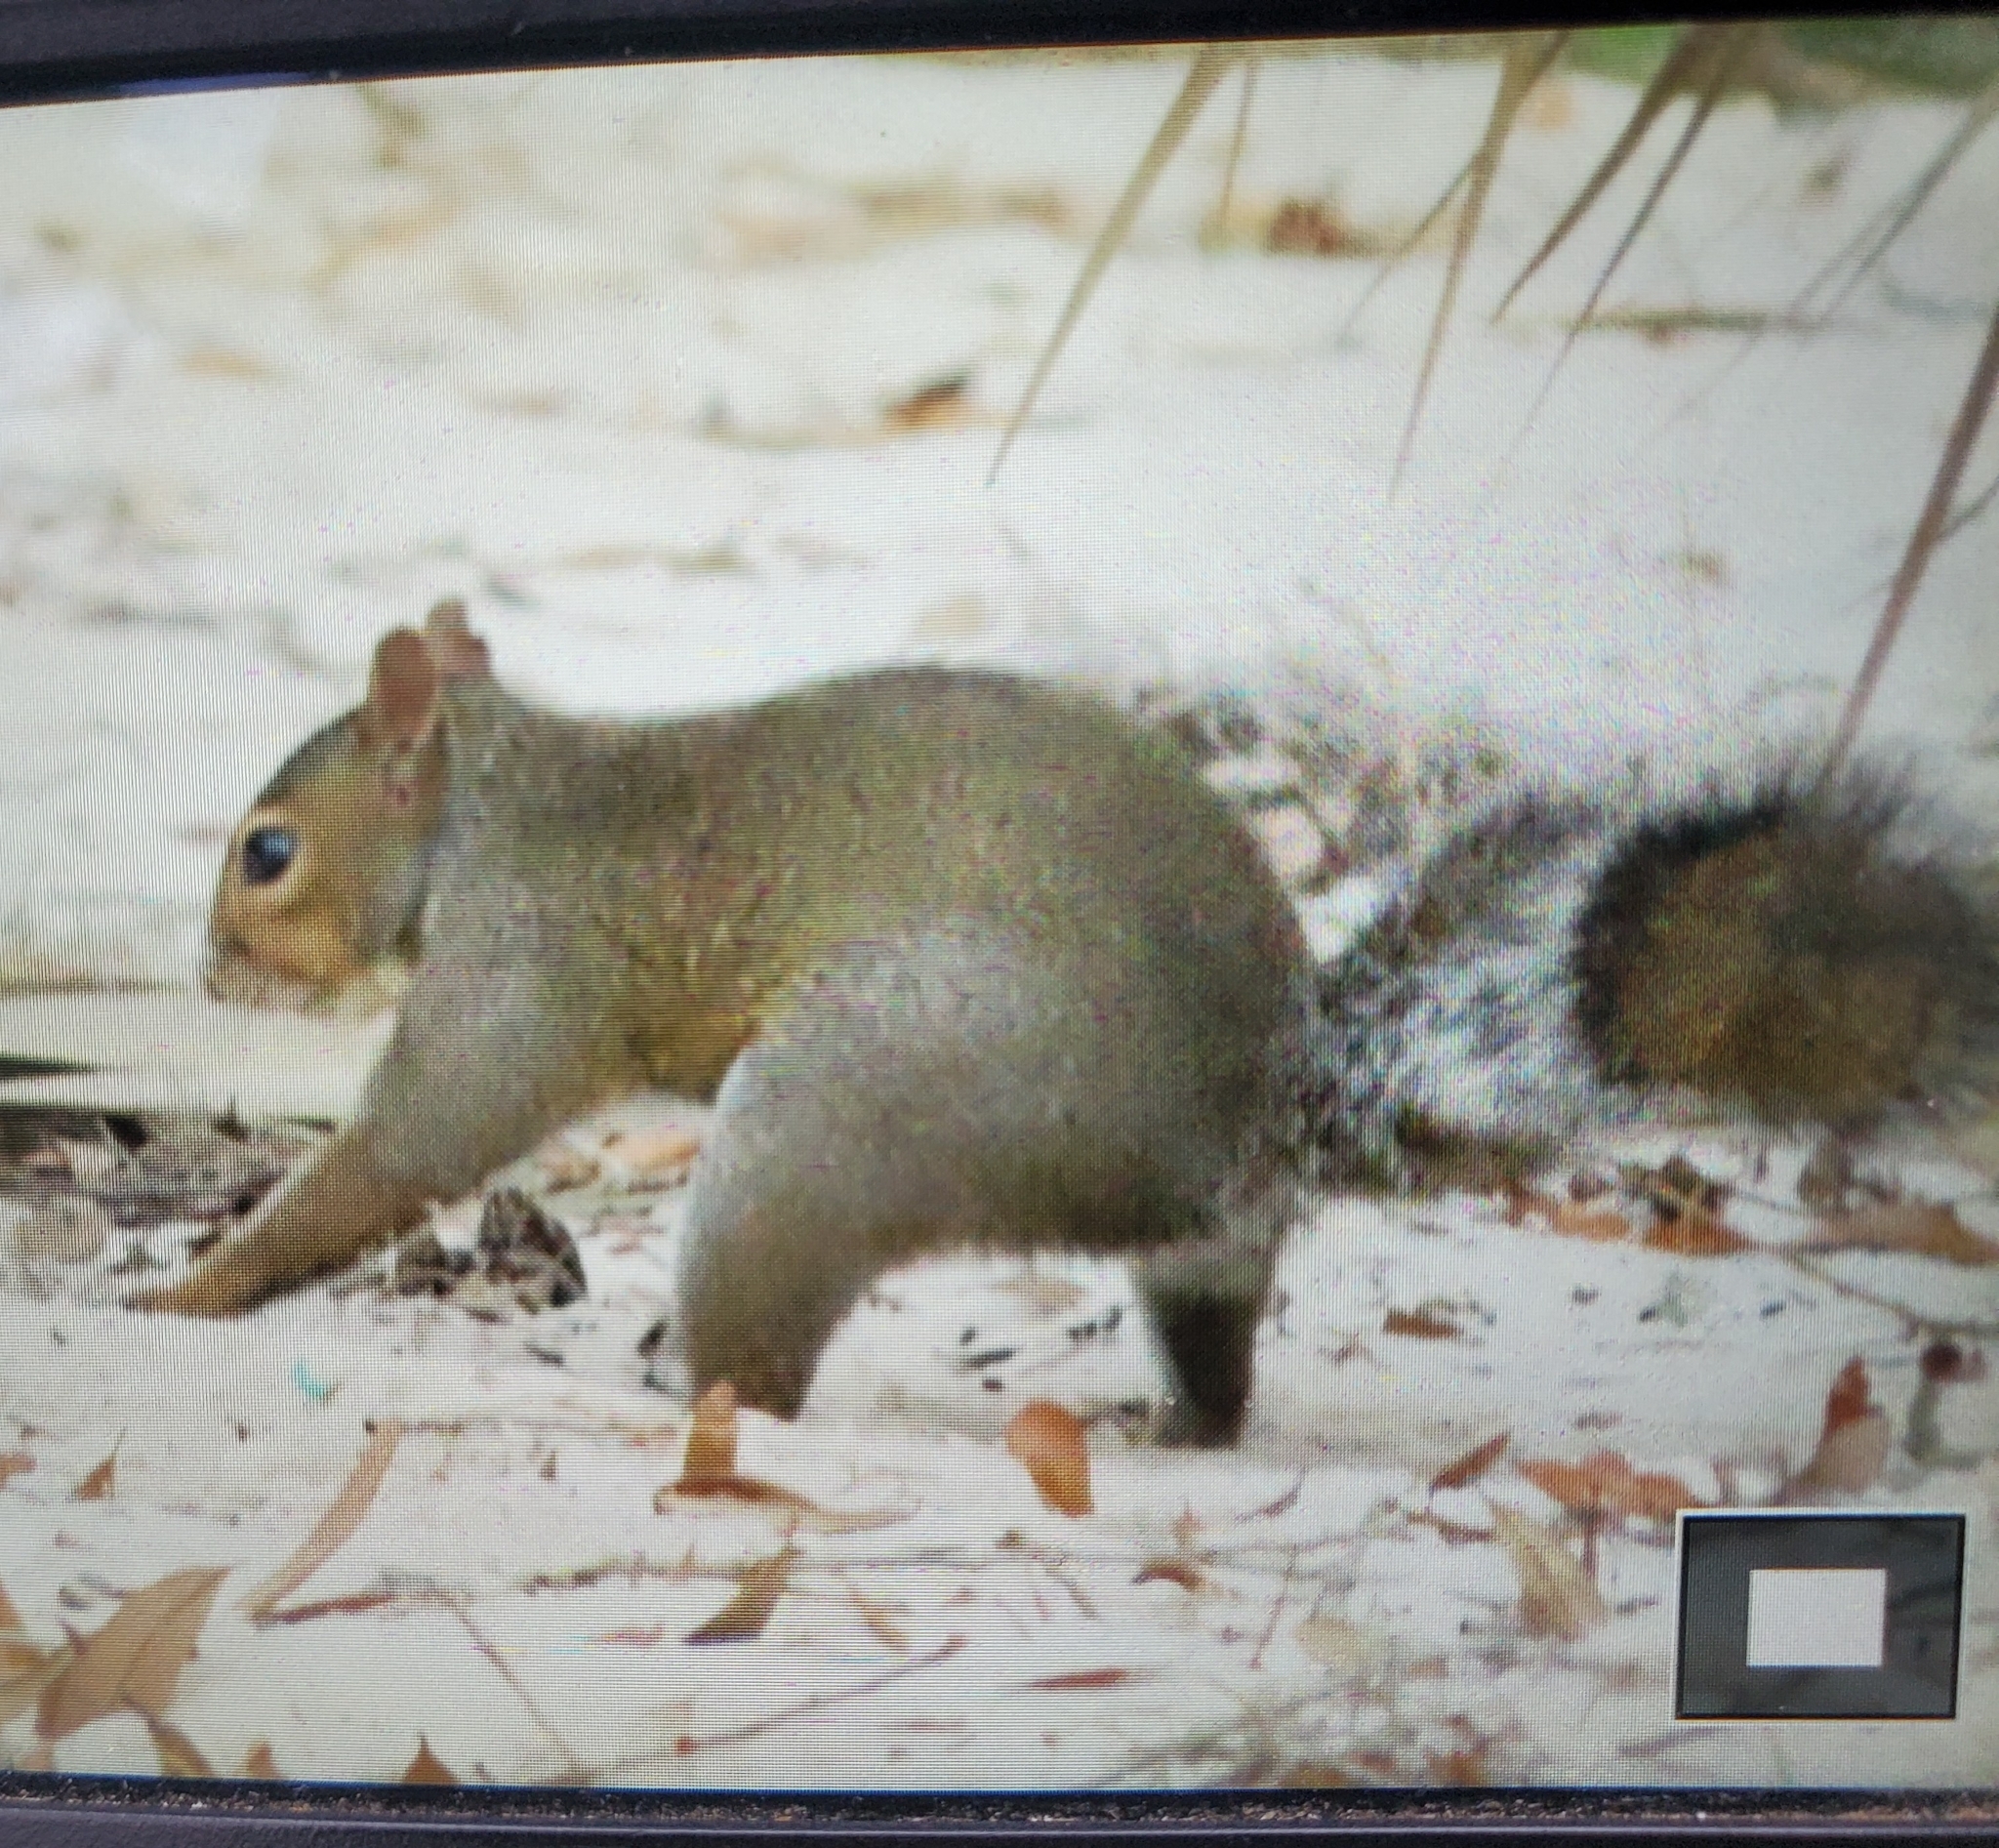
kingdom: Animalia
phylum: Chordata
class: Mammalia
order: Rodentia
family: Sciuridae
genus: Sciurus
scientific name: Sciurus carolinensis
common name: Eastern gray squirrel
